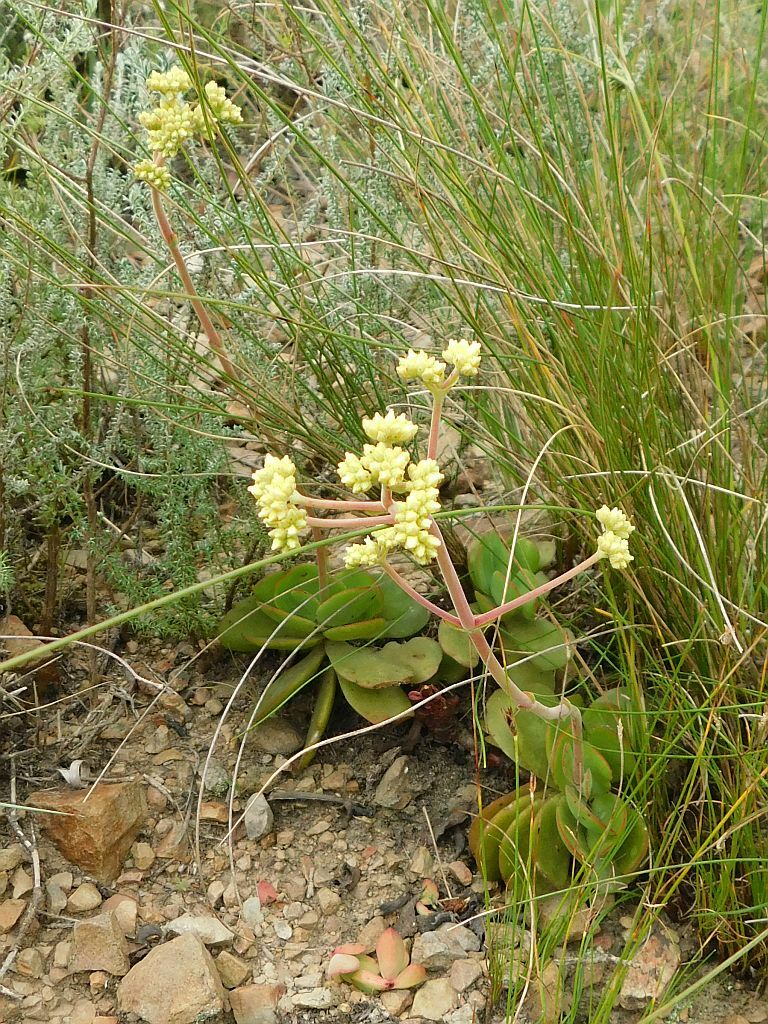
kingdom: Plantae
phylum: Tracheophyta
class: Magnoliopsida
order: Saxifragales
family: Crassulaceae
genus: Crassula
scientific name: Crassula nudicaulis
